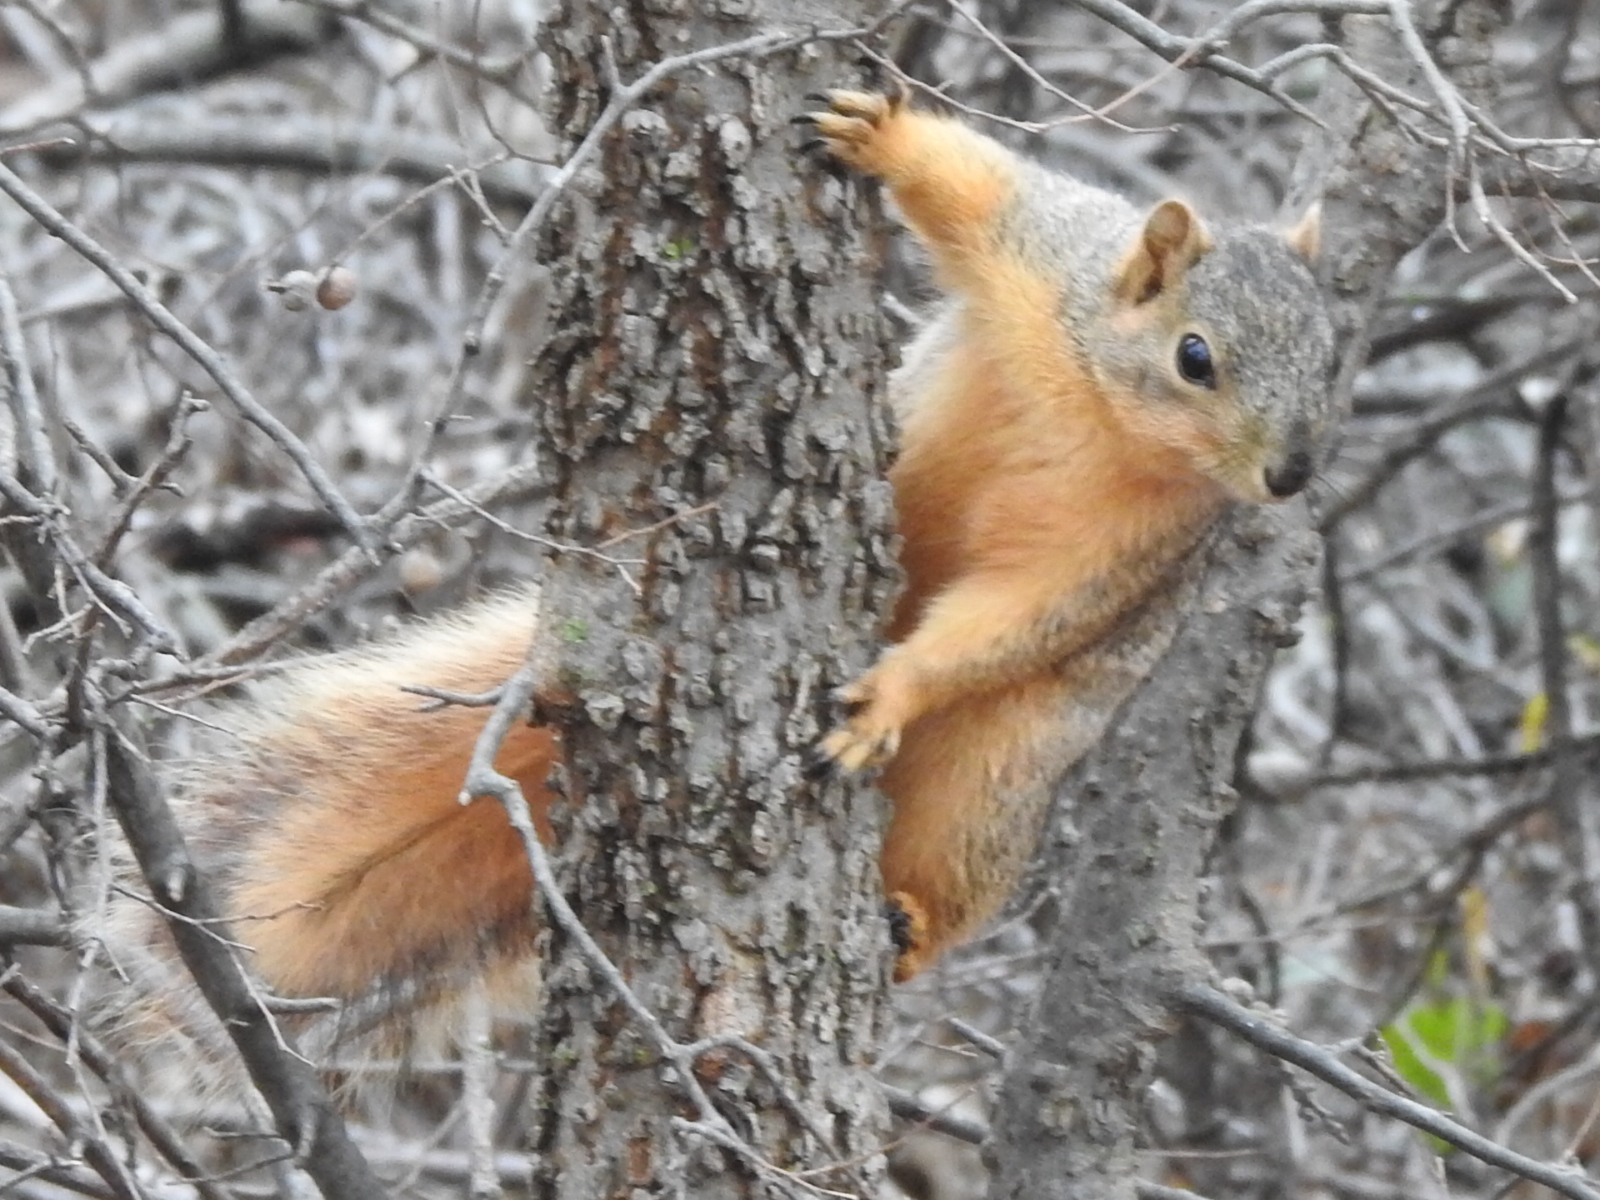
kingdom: Animalia
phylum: Chordata
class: Mammalia
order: Rodentia
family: Sciuridae
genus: Sciurus
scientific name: Sciurus niger
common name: Fox squirrel
